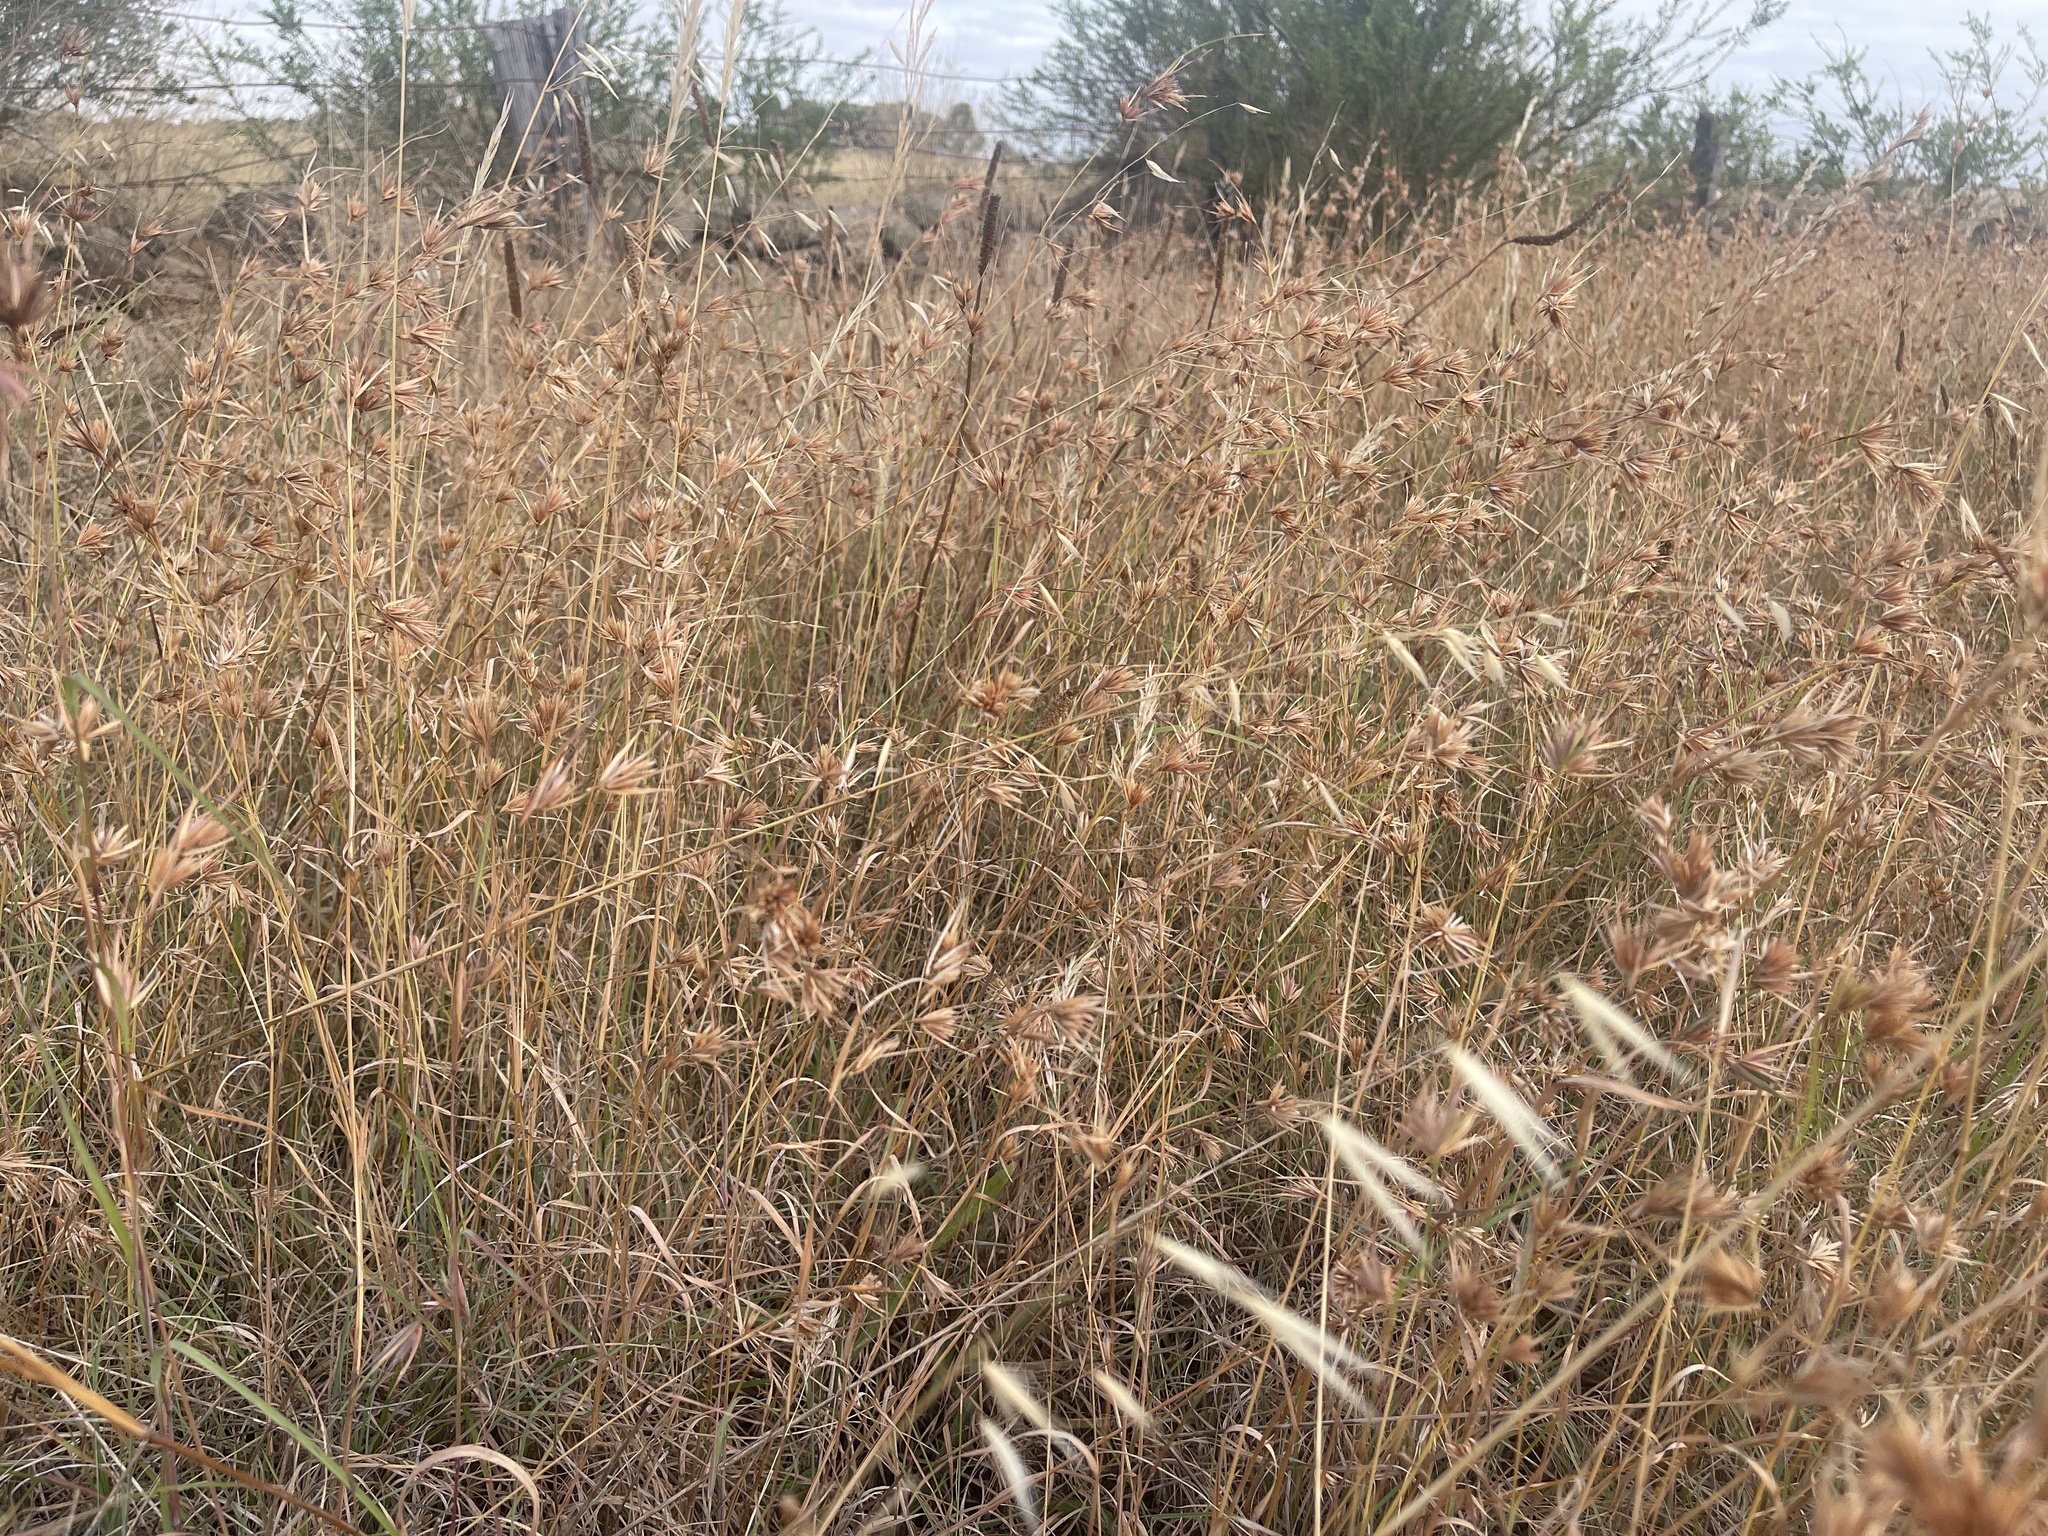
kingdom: Plantae
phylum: Tracheophyta
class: Liliopsida
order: Poales
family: Poaceae
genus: Themeda
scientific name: Themeda triandra
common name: Kangaroo grass
